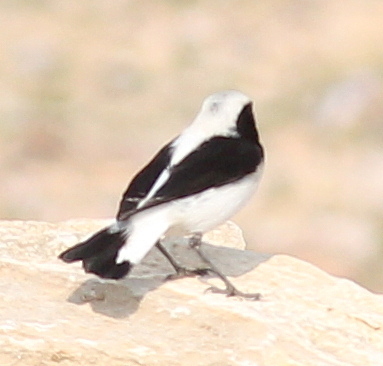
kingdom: Animalia
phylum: Chordata
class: Aves
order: Passeriformes
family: Muscicapidae
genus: Oenanthe
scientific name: Oenanthe finschii
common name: Finsch's wheatear
